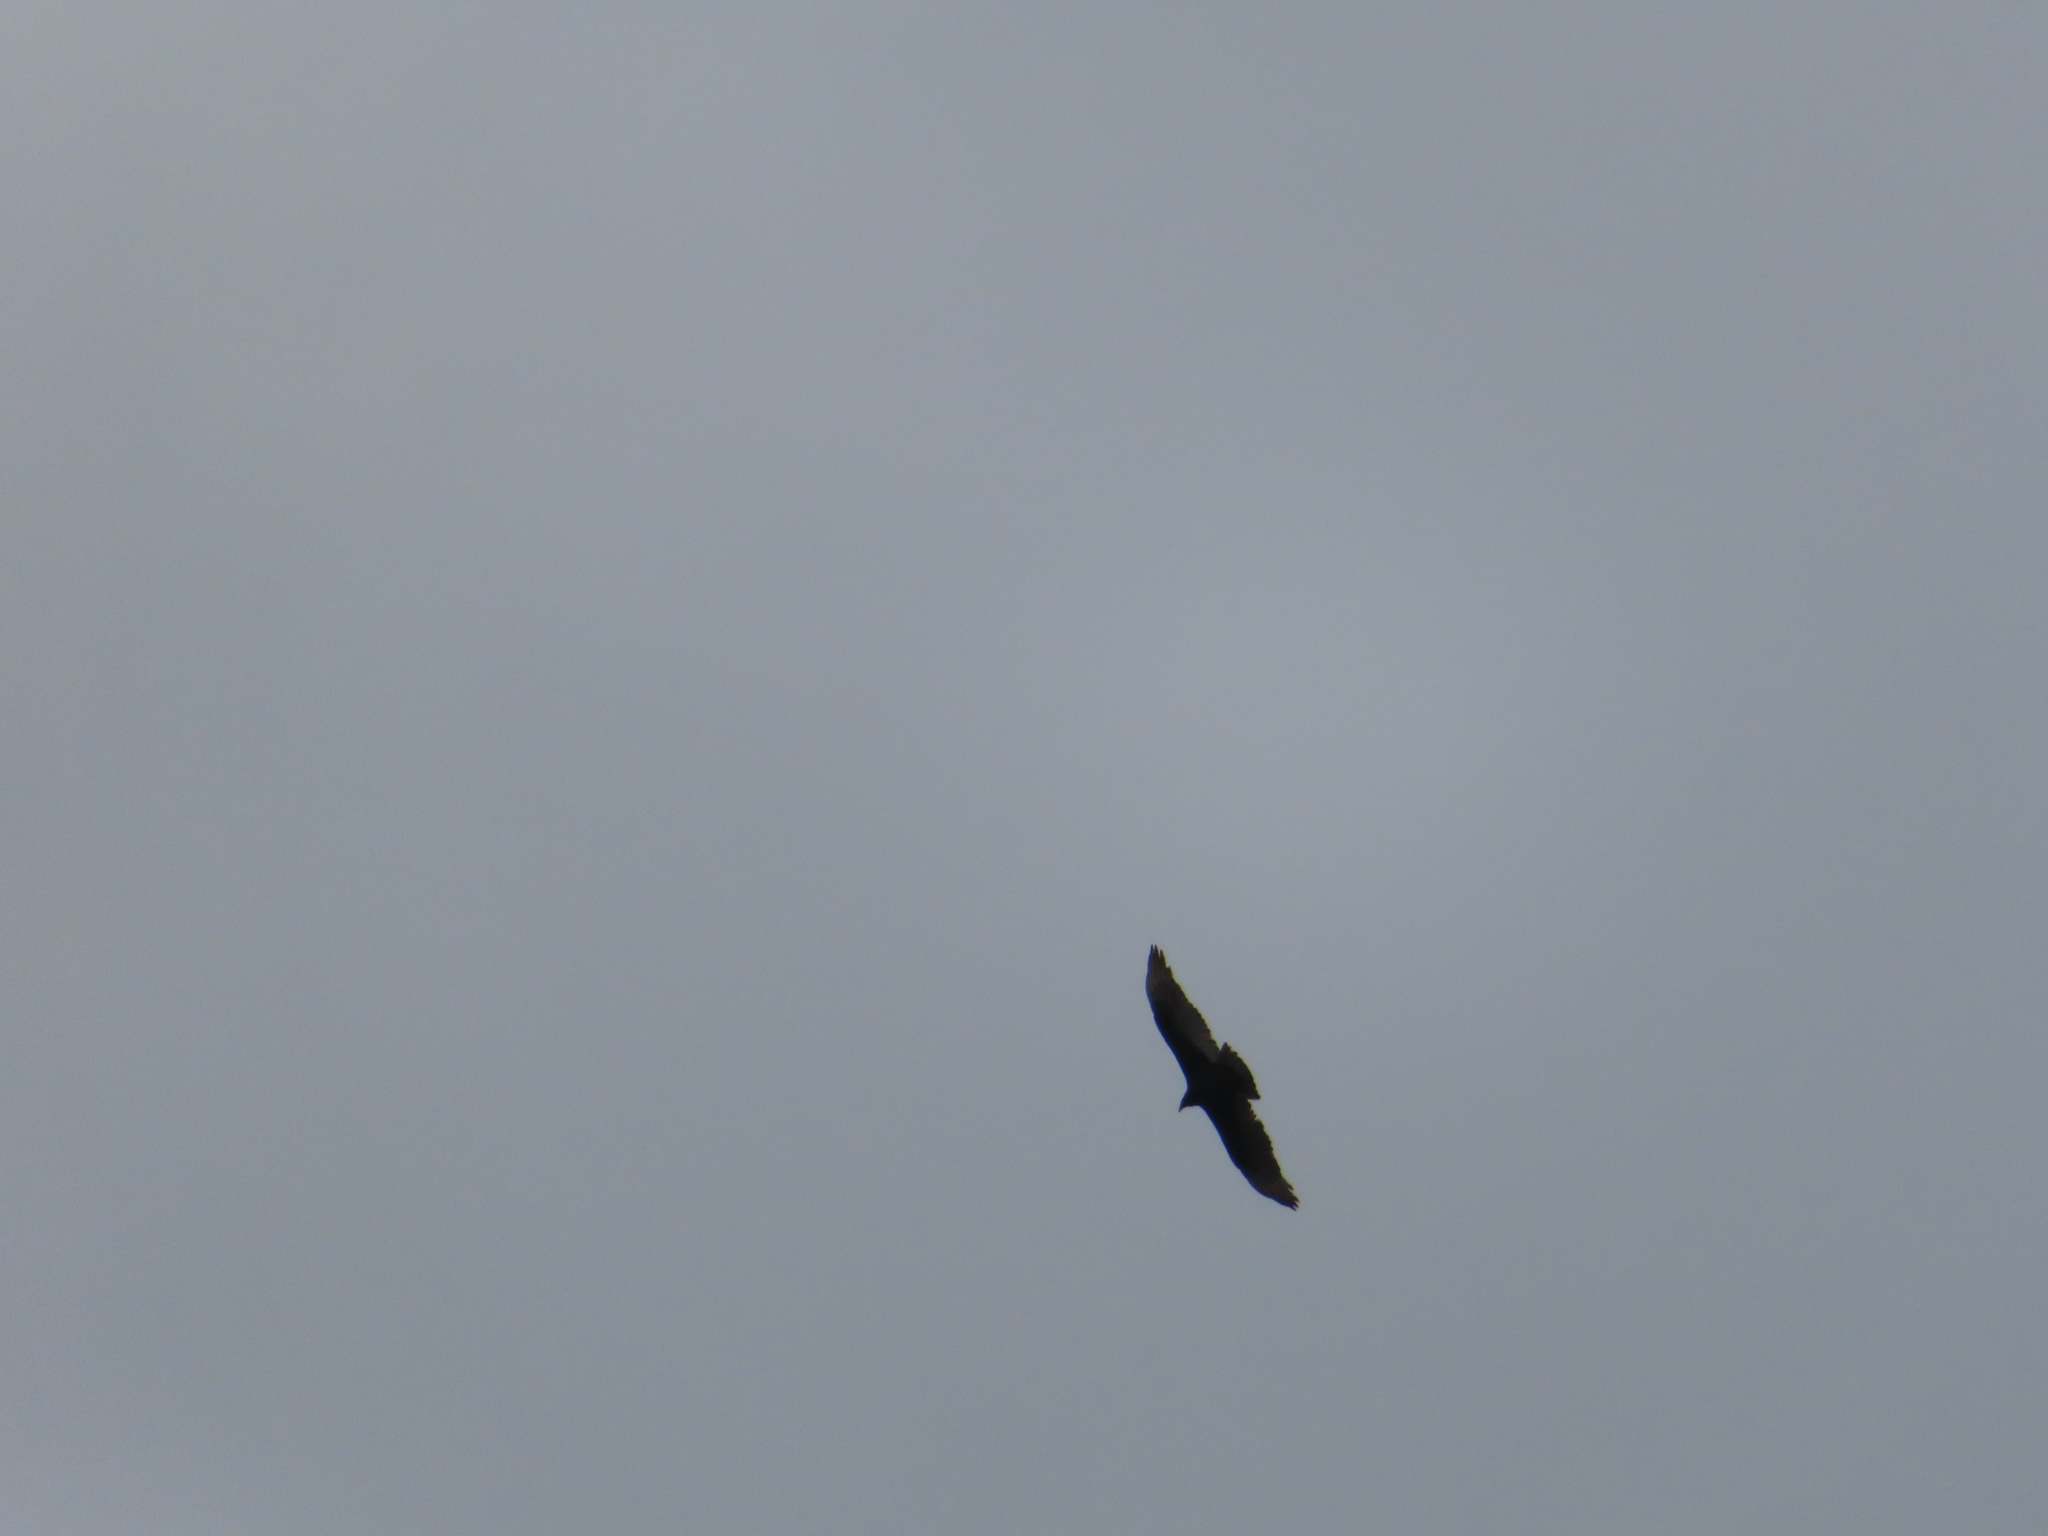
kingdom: Animalia
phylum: Chordata
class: Aves
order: Accipitriformes
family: Cathartidae
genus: Cathartes
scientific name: Cathartes aura
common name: Turkey vulture
